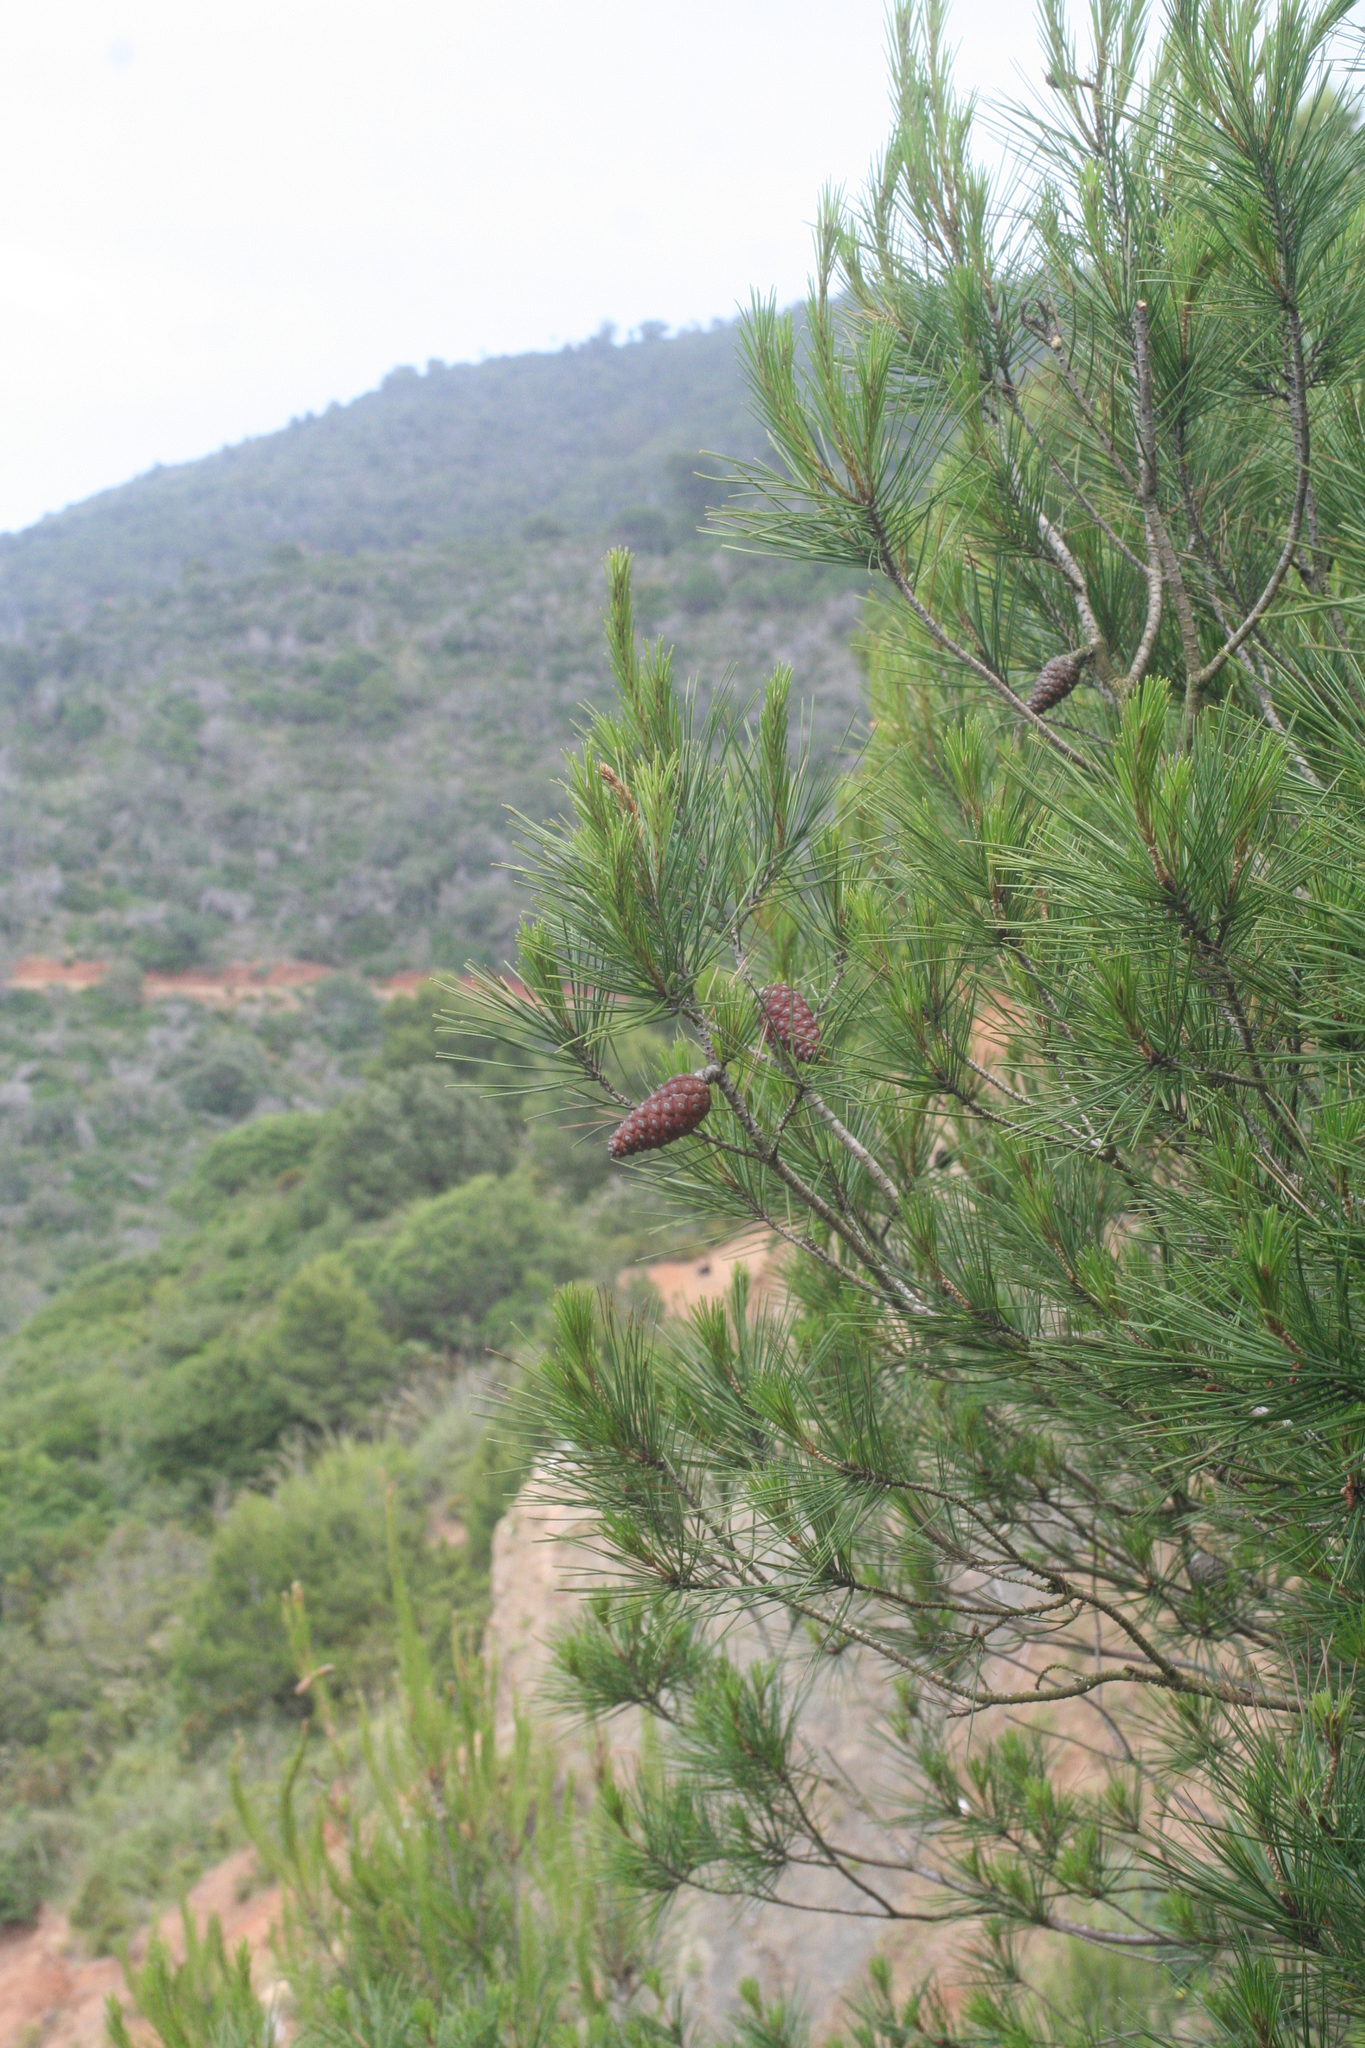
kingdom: Plantae
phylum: Tracheophyta
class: Pinopsida
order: Pinales
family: Pinaceae
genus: Pinus
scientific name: Pinus halepensis
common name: Aleppo pine
